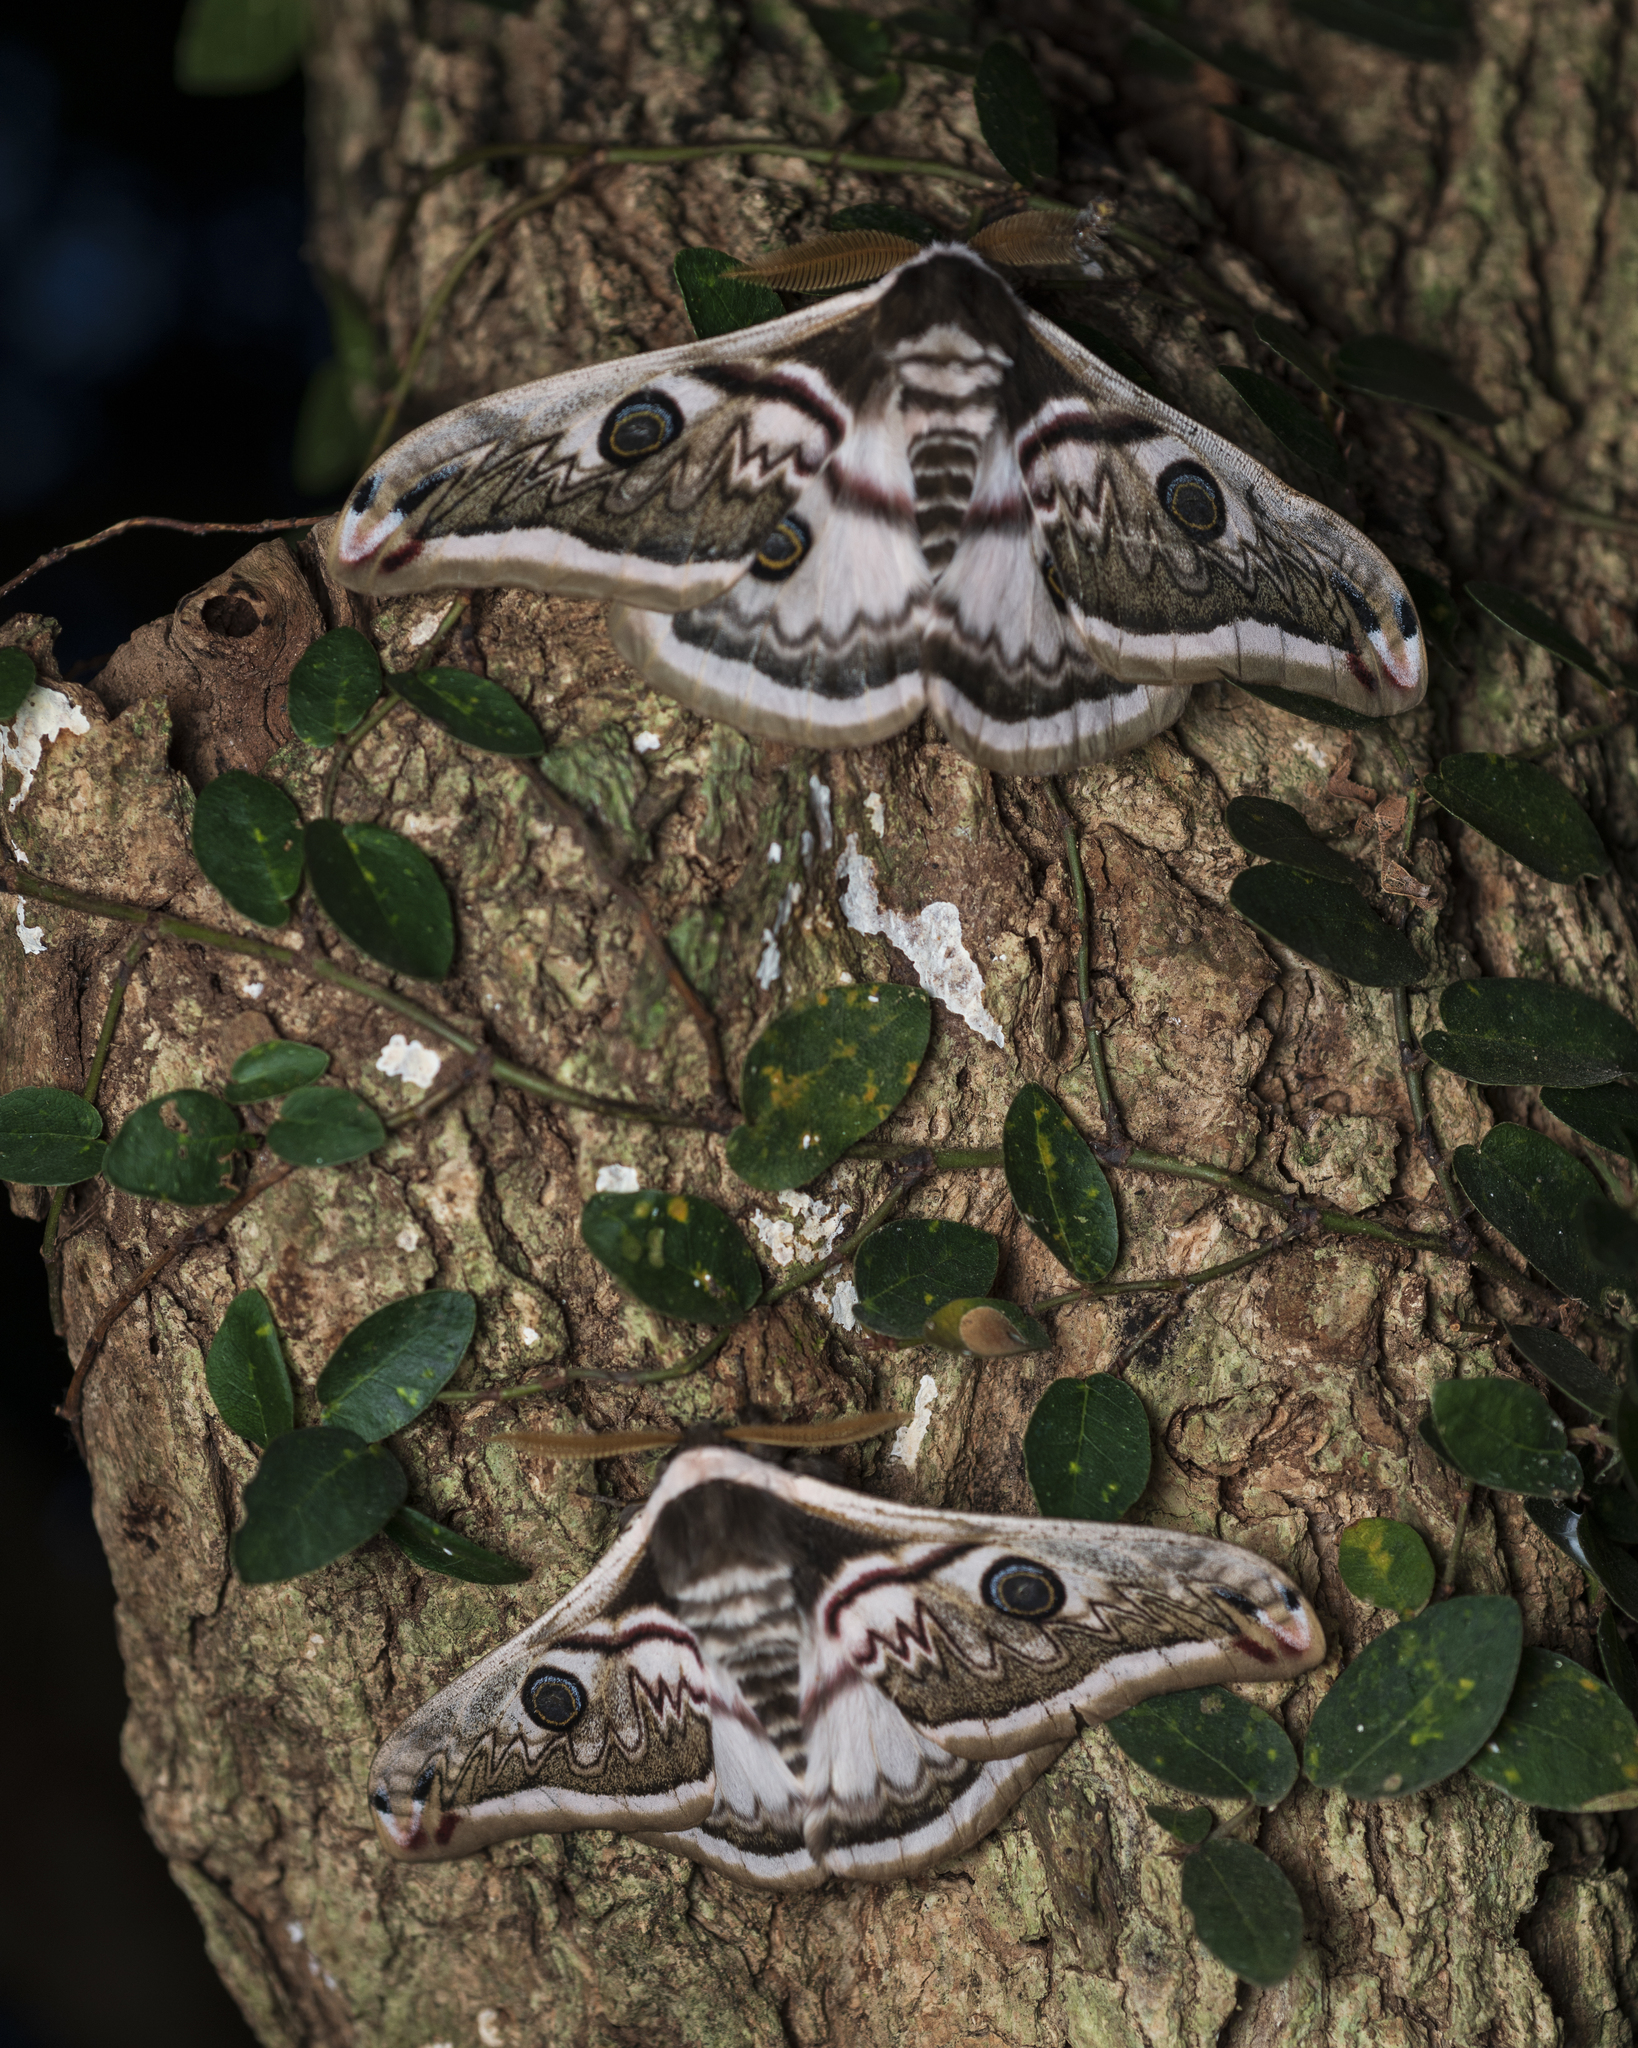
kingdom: Animalia
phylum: Arthropoda
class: Insecta
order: Lepidoptera
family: Saturniidae
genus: Saturnia
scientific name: Saturnia pyretorum
